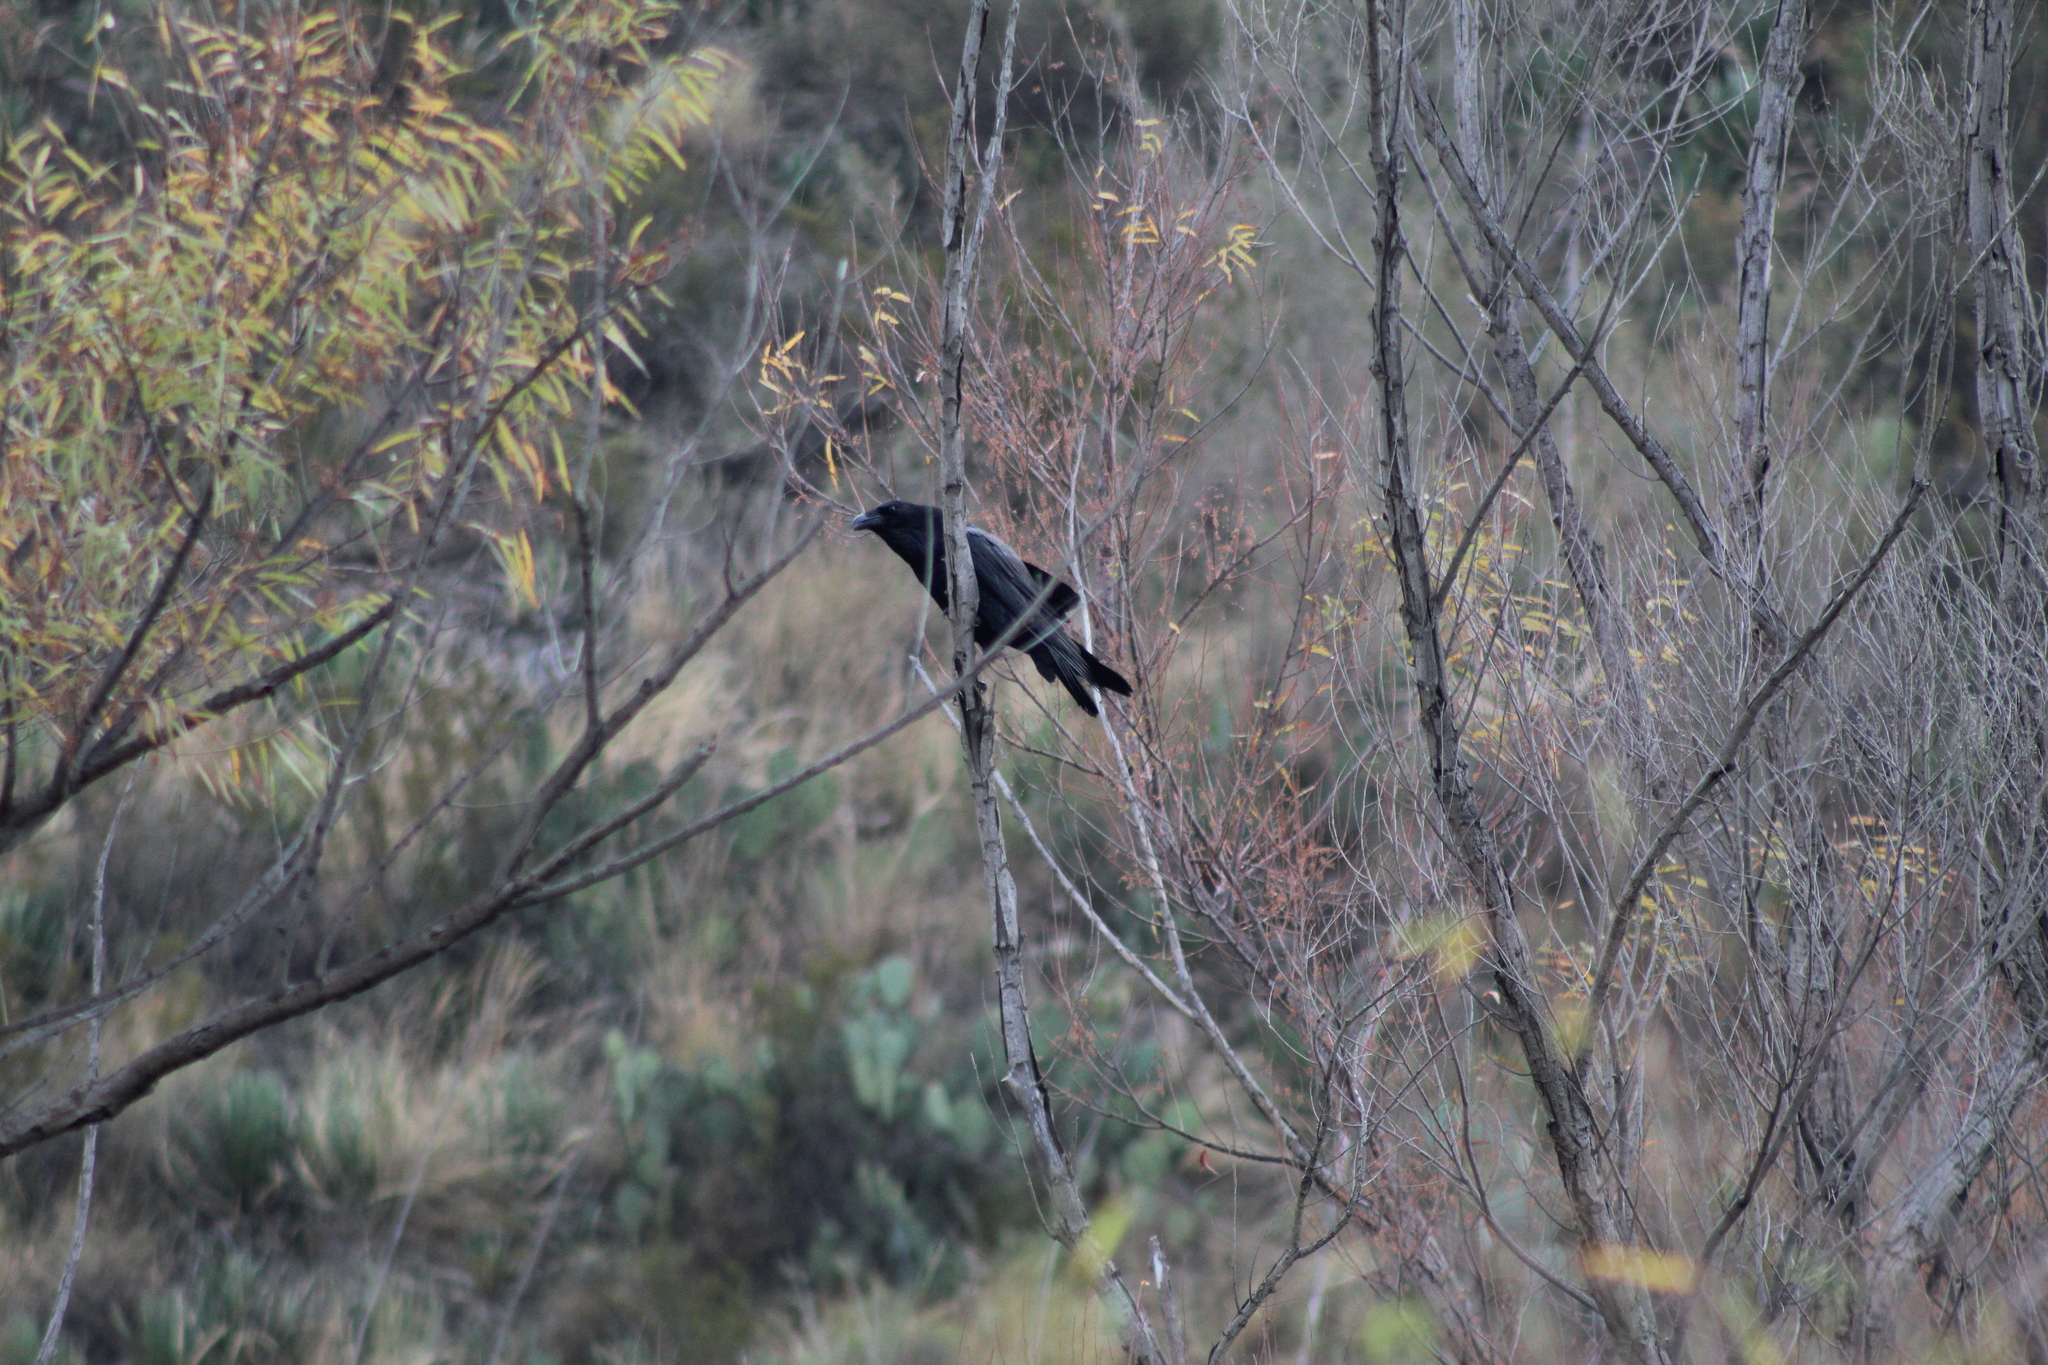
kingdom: Animalia
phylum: Chordata
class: Aves
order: Passeriformes
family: Corvidae
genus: Corvus
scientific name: Corvus corax
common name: Common raven
